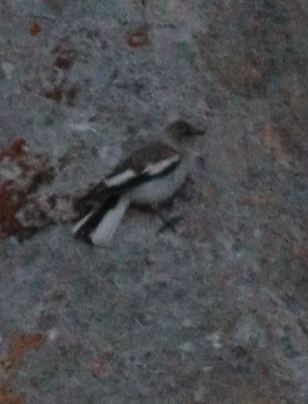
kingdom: Animalia
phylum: Chordata
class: Aves
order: Passeriformes
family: Passeridae
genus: Montifringilla
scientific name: Montifringilla nivalis
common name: White-winged snowfinch
